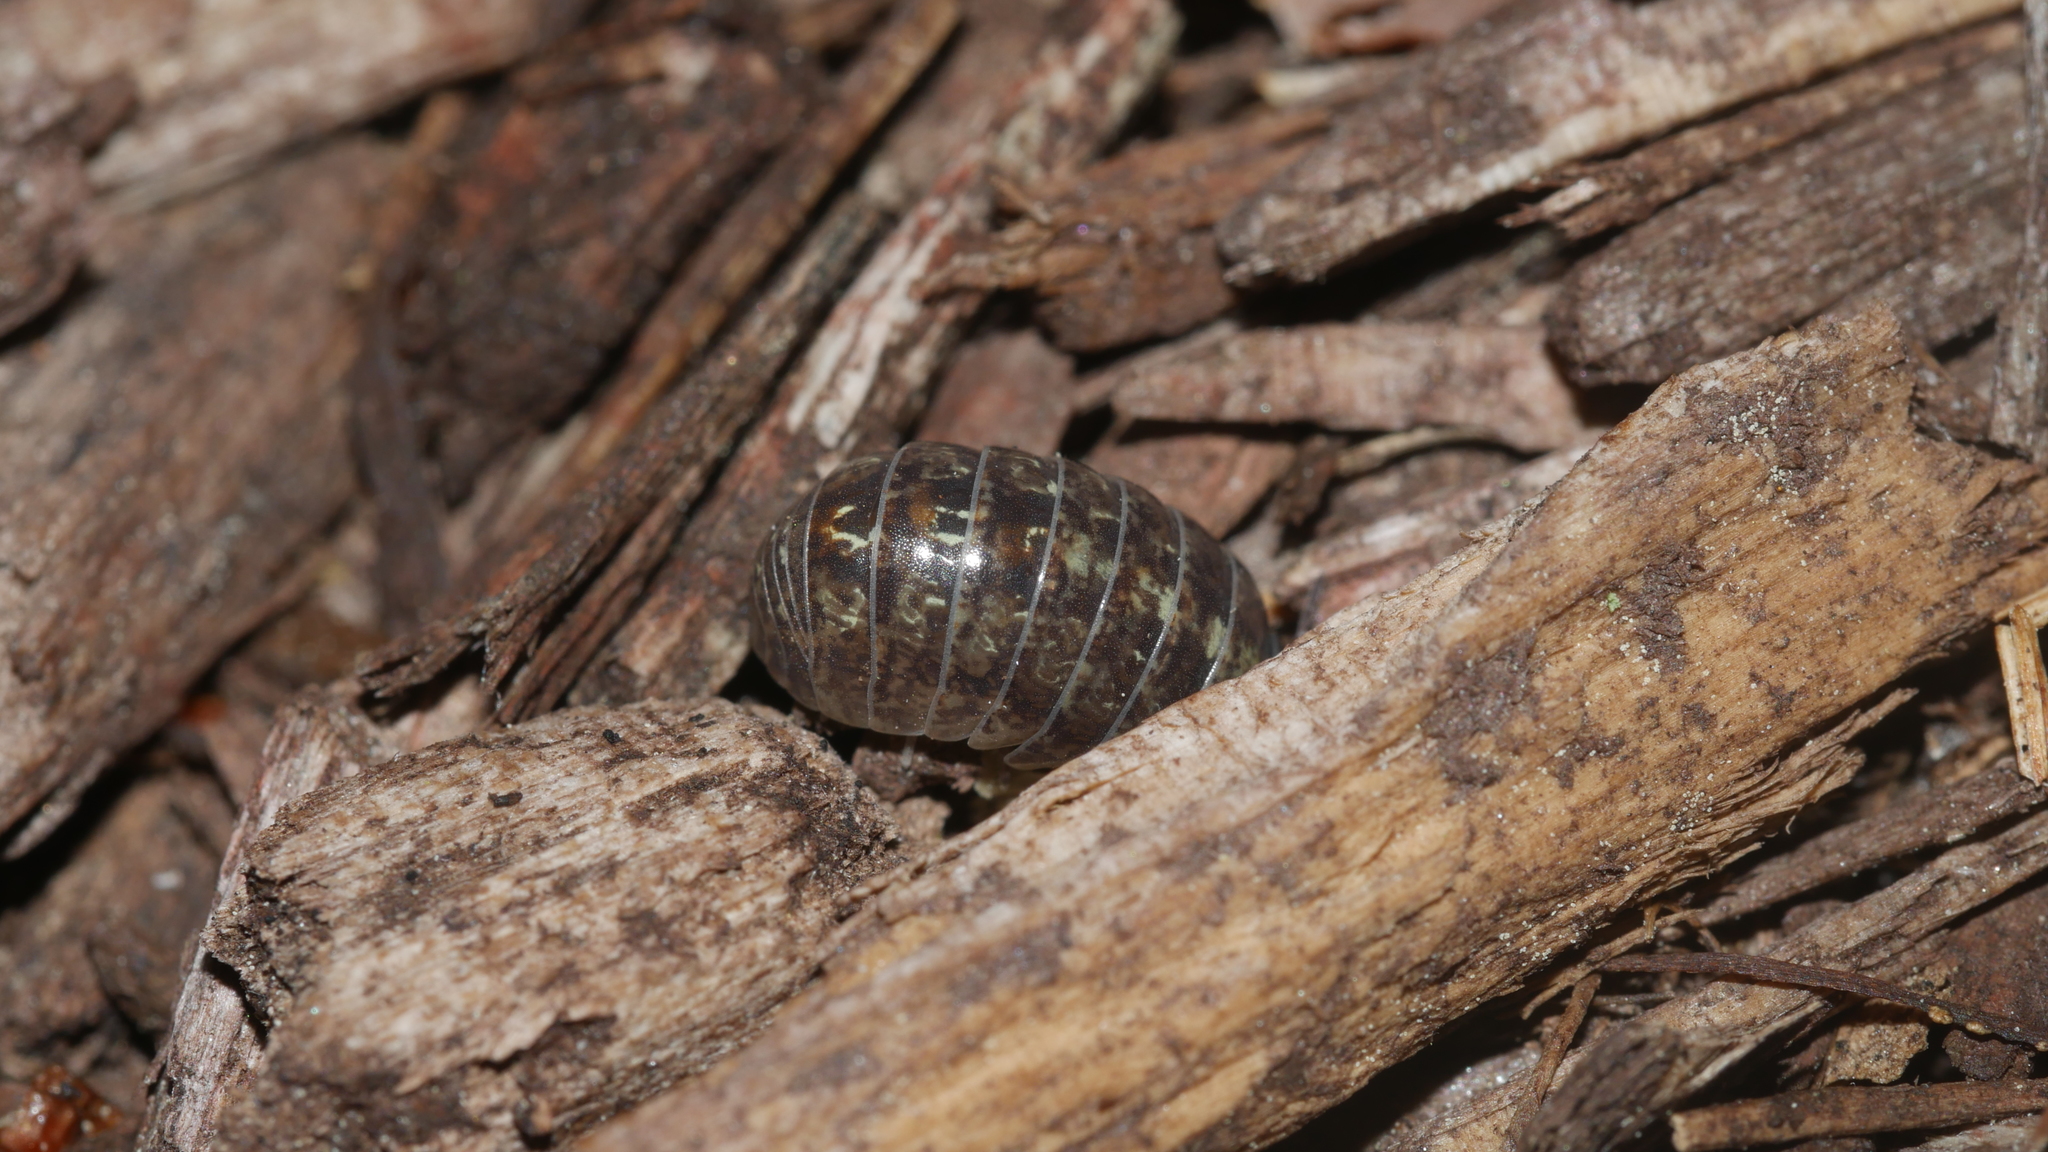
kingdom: Animalia
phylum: Arthropoda
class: Malacostraca
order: Isopoda
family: Armadillidiidae
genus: Armadillidium
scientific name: Armadillidium vulgare
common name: Common pill woodlouse
